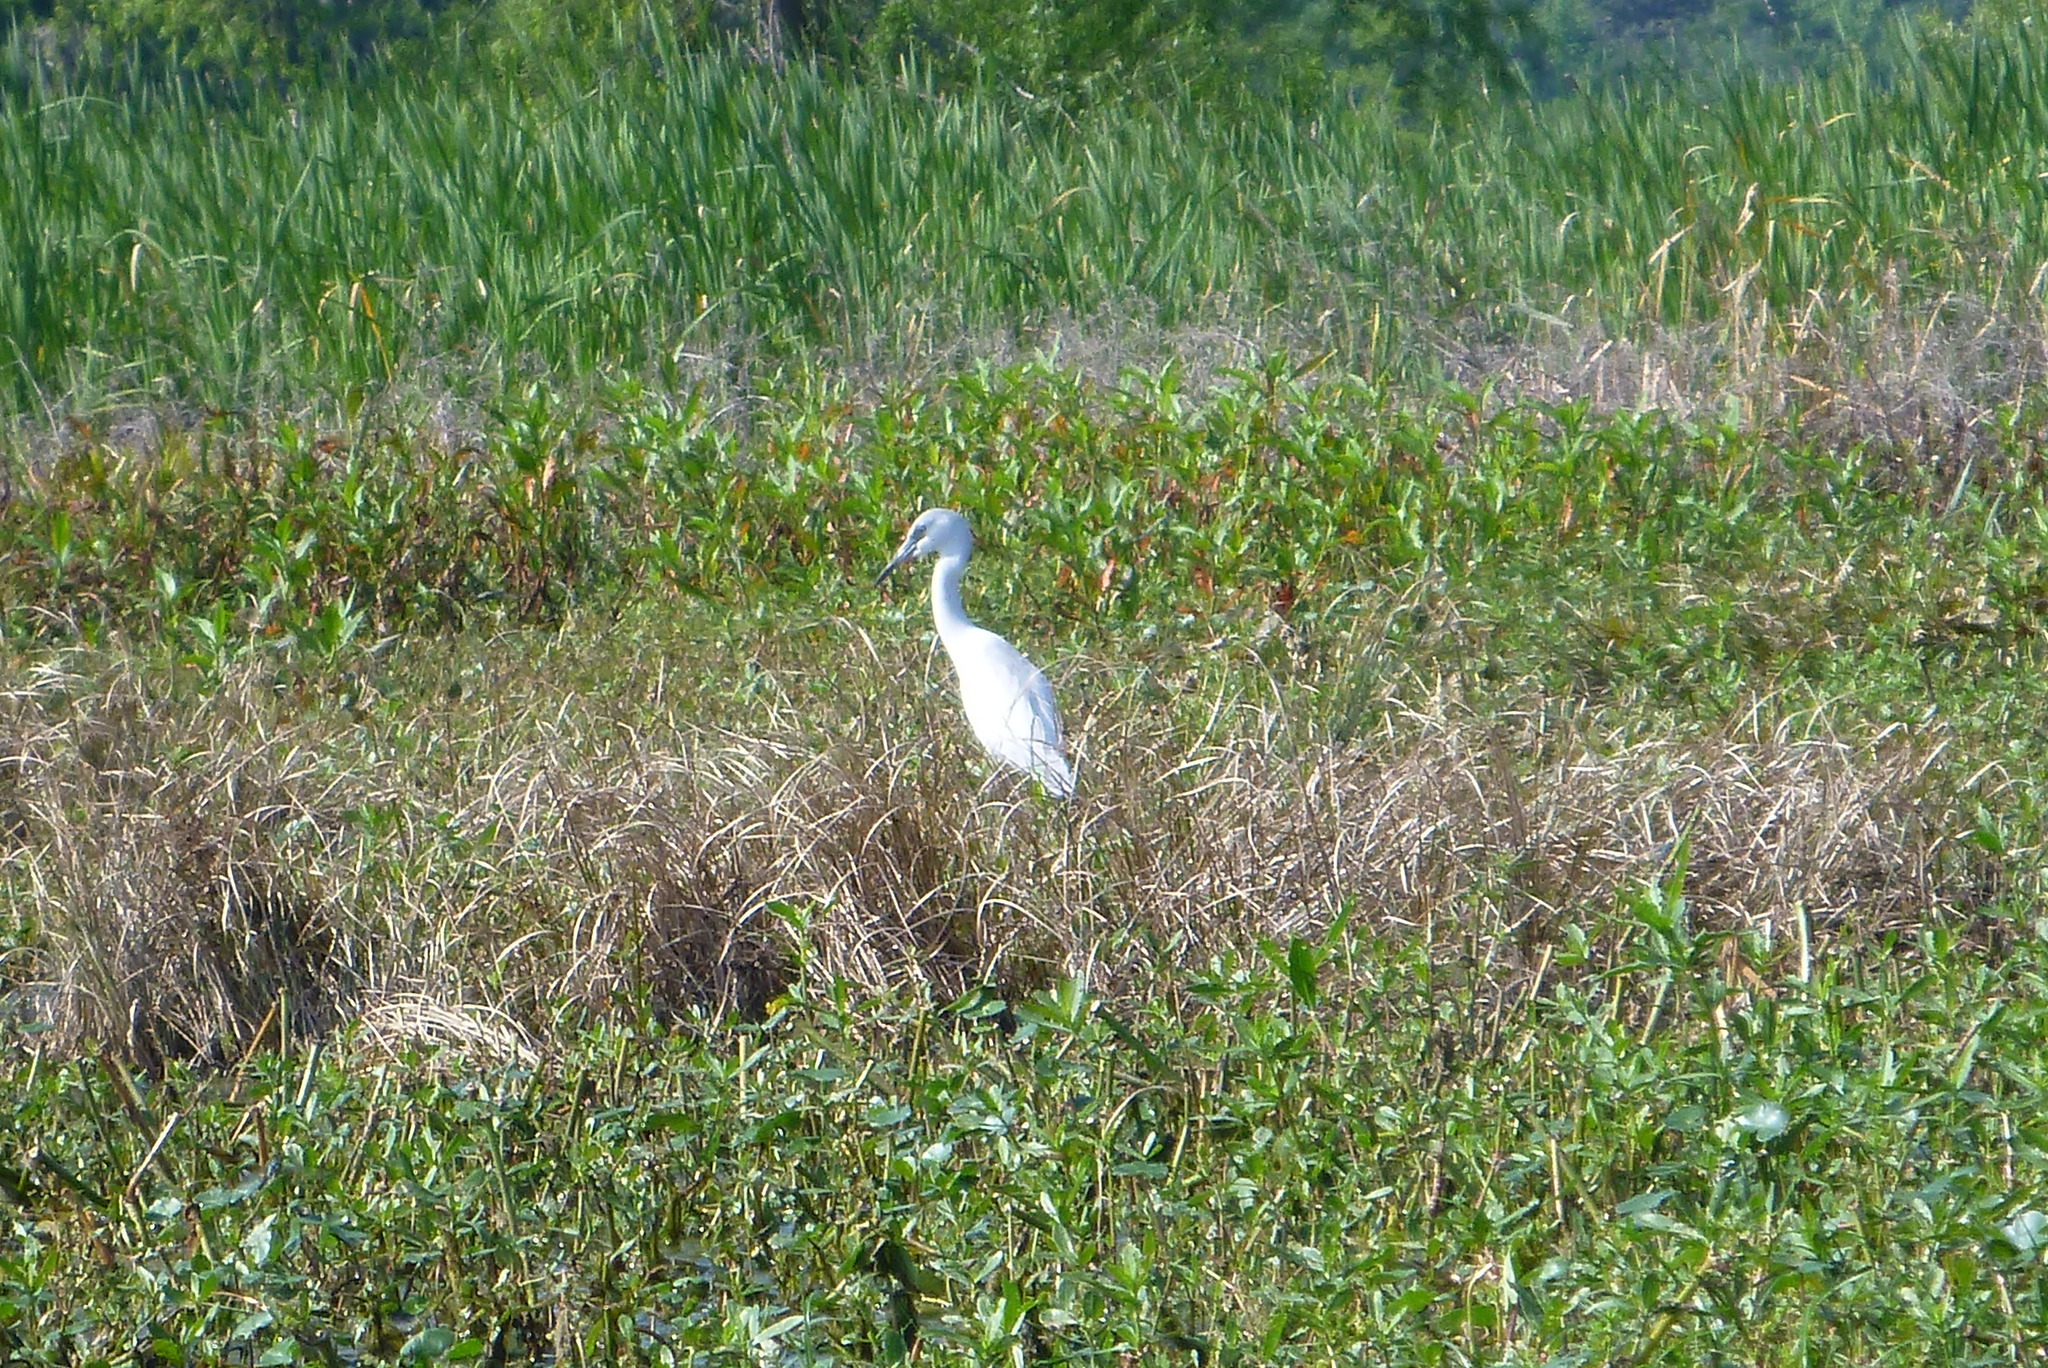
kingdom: Animalia
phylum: Chordata
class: Aves
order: Pelecaniformes
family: Ardeidae
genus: Ardea
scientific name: Ardea alba
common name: Great egret
